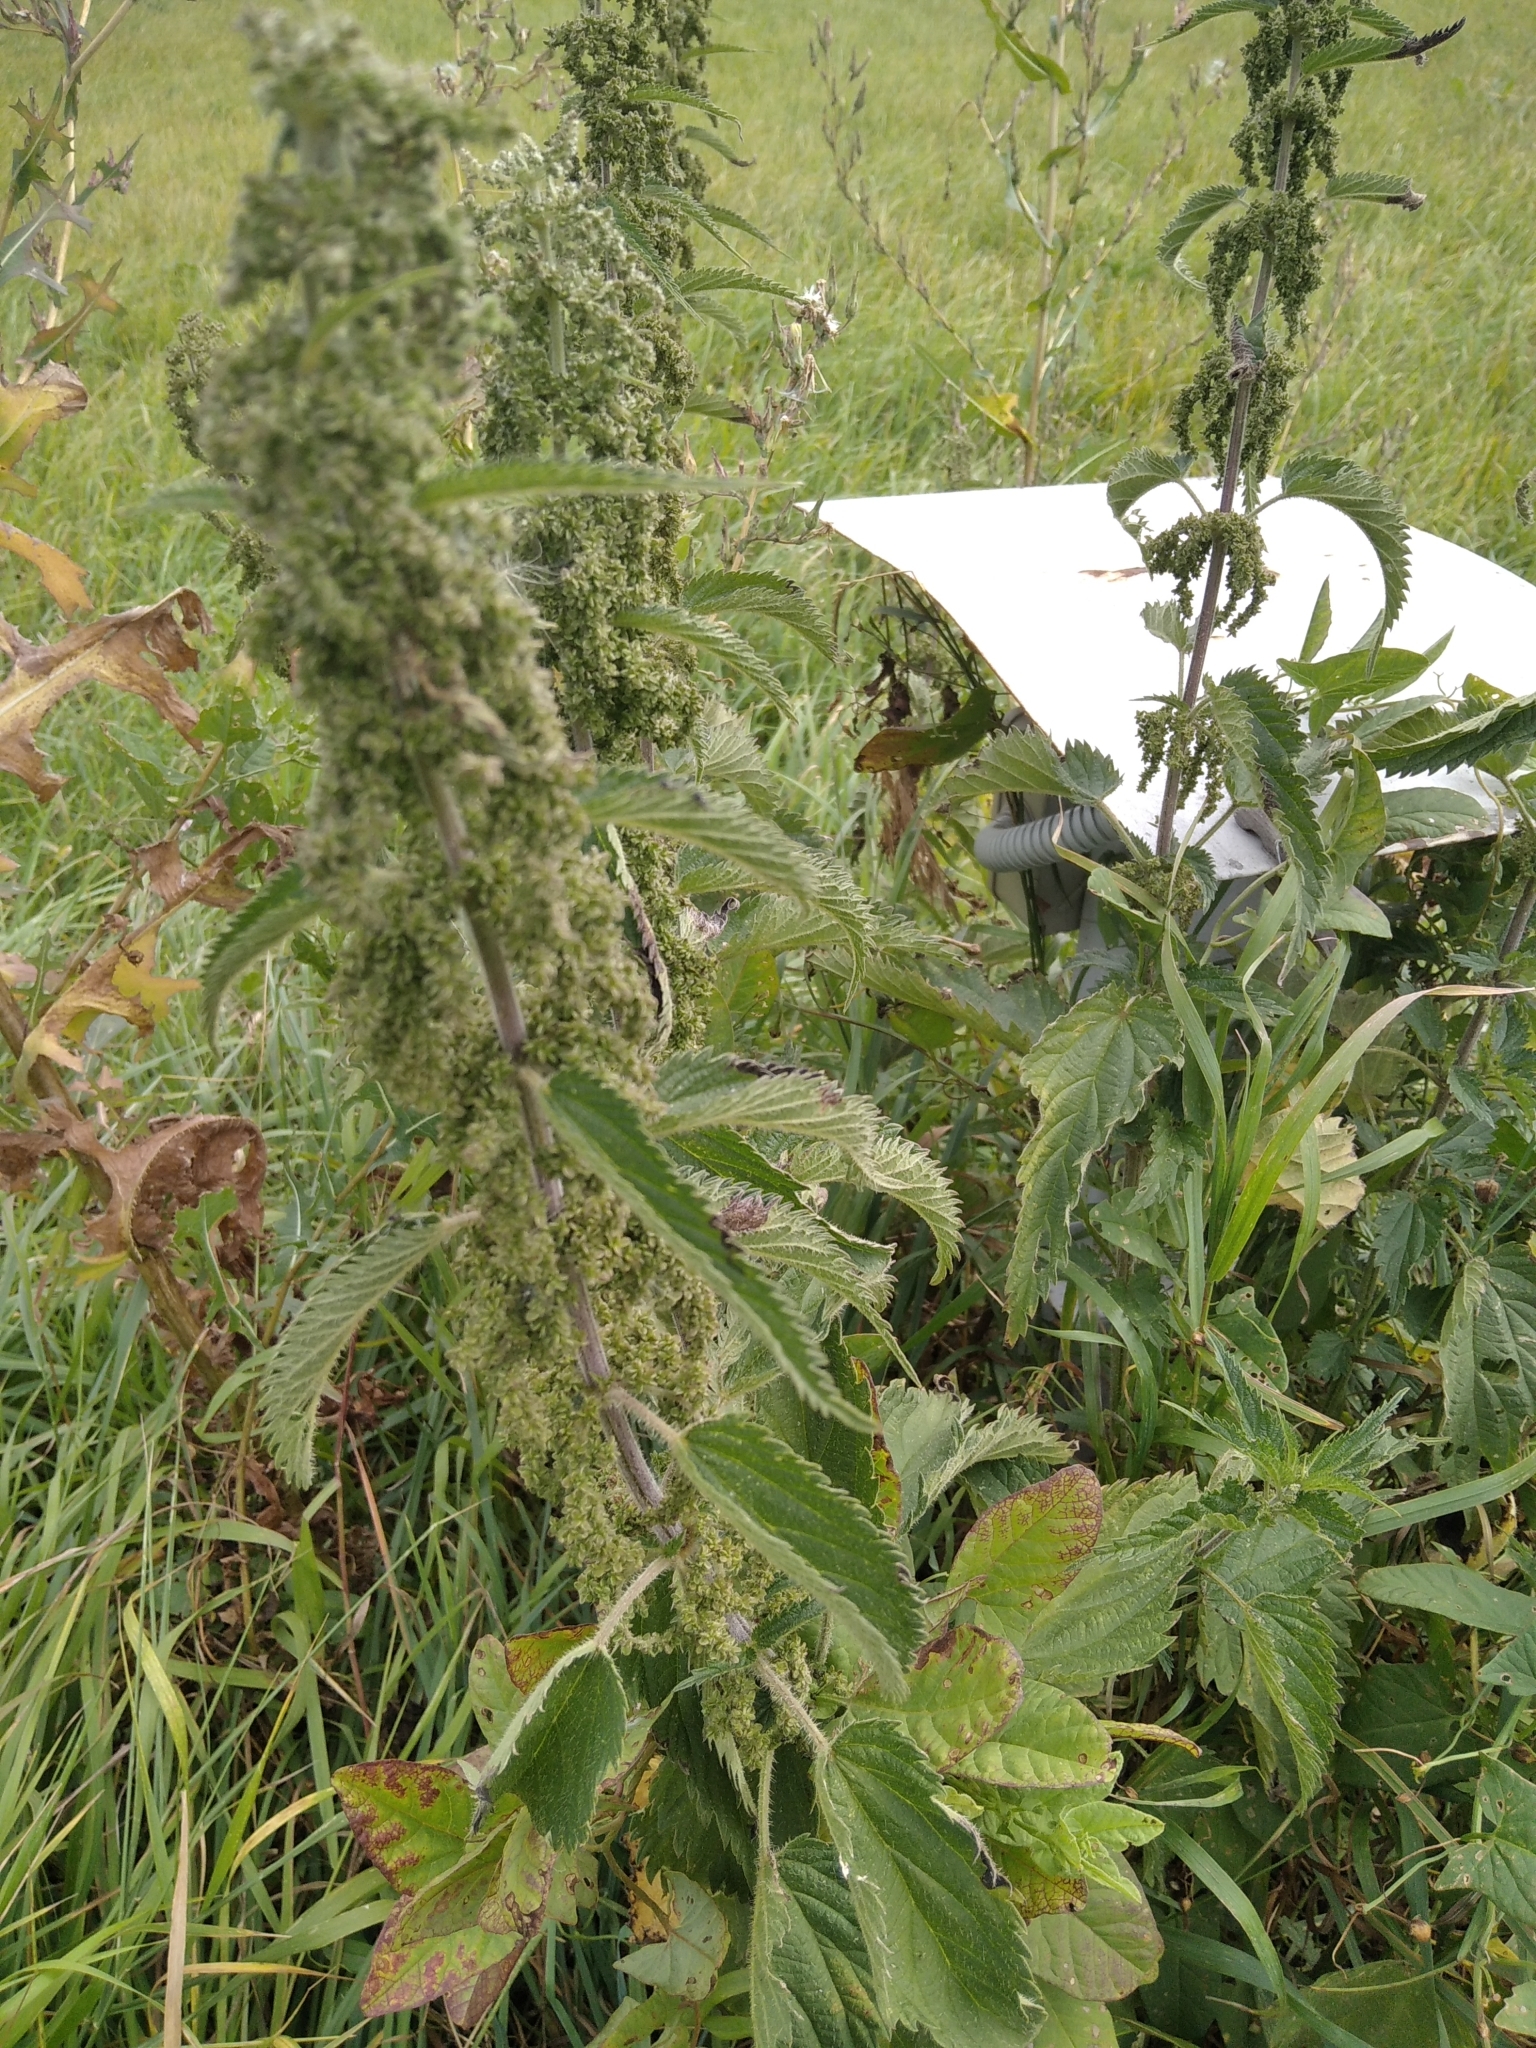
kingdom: Plantae
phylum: Tracheophyta
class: Magnoliopsida
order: Rosales
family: Urticaceae
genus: Urtica
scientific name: Urtica dioica
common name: Common nettle
